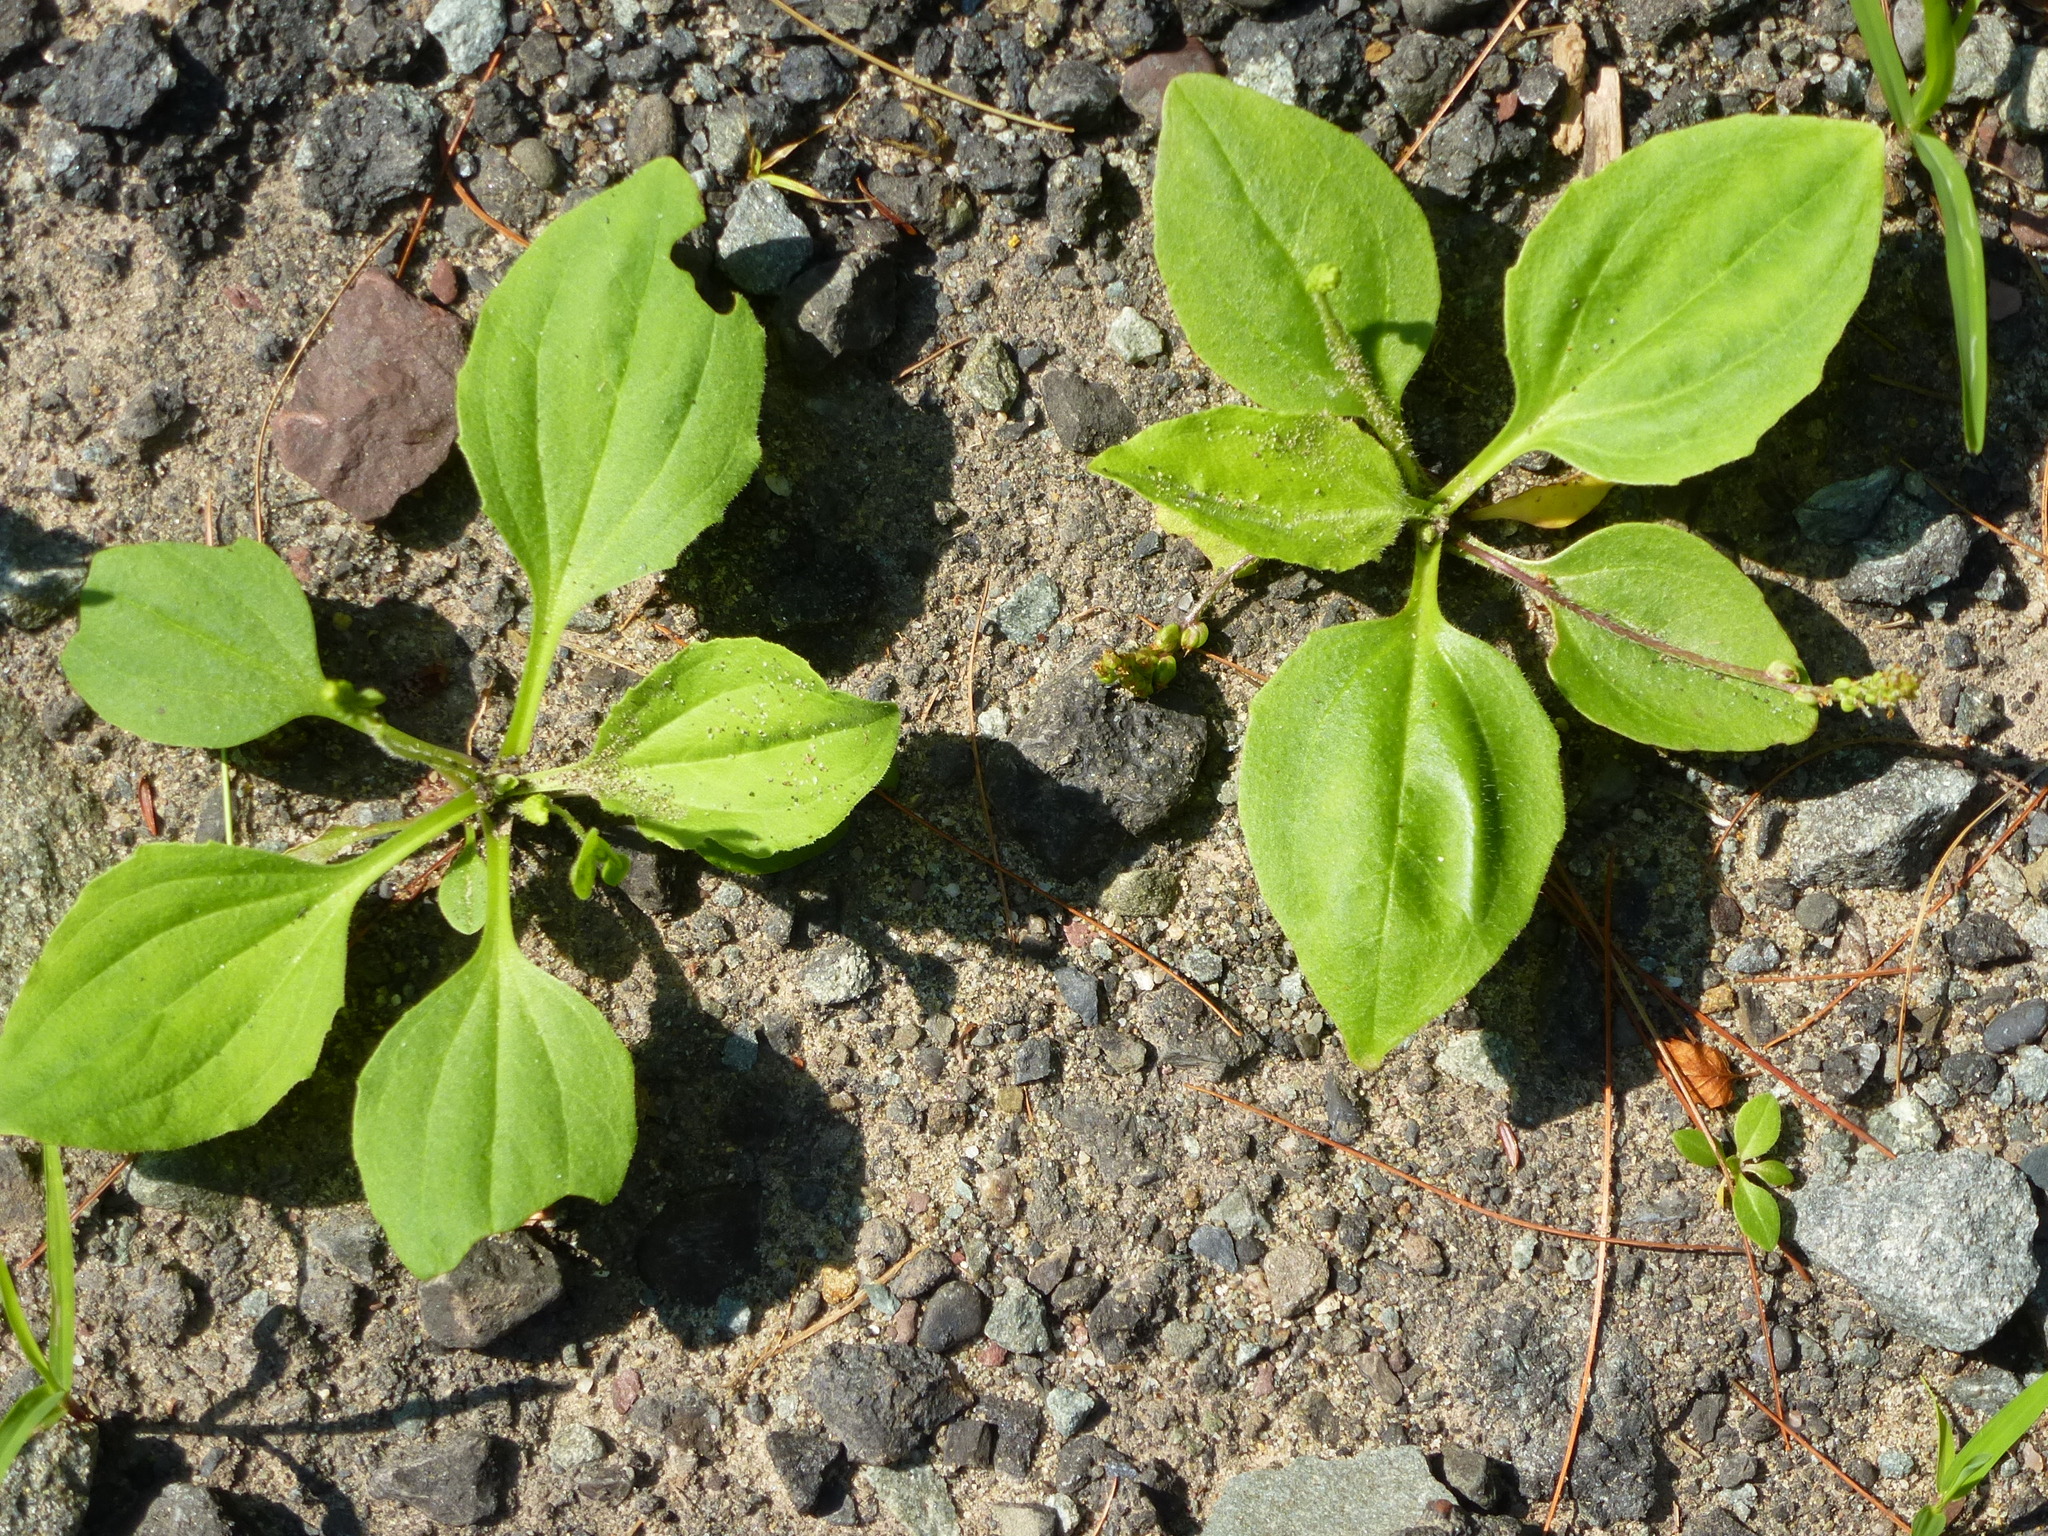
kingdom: Plantae
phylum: Tracheophyta
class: Magnoliopsida
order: Lamiales
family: Plantaginaceae
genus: Plantago
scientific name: Plantago major
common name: Common plantain
